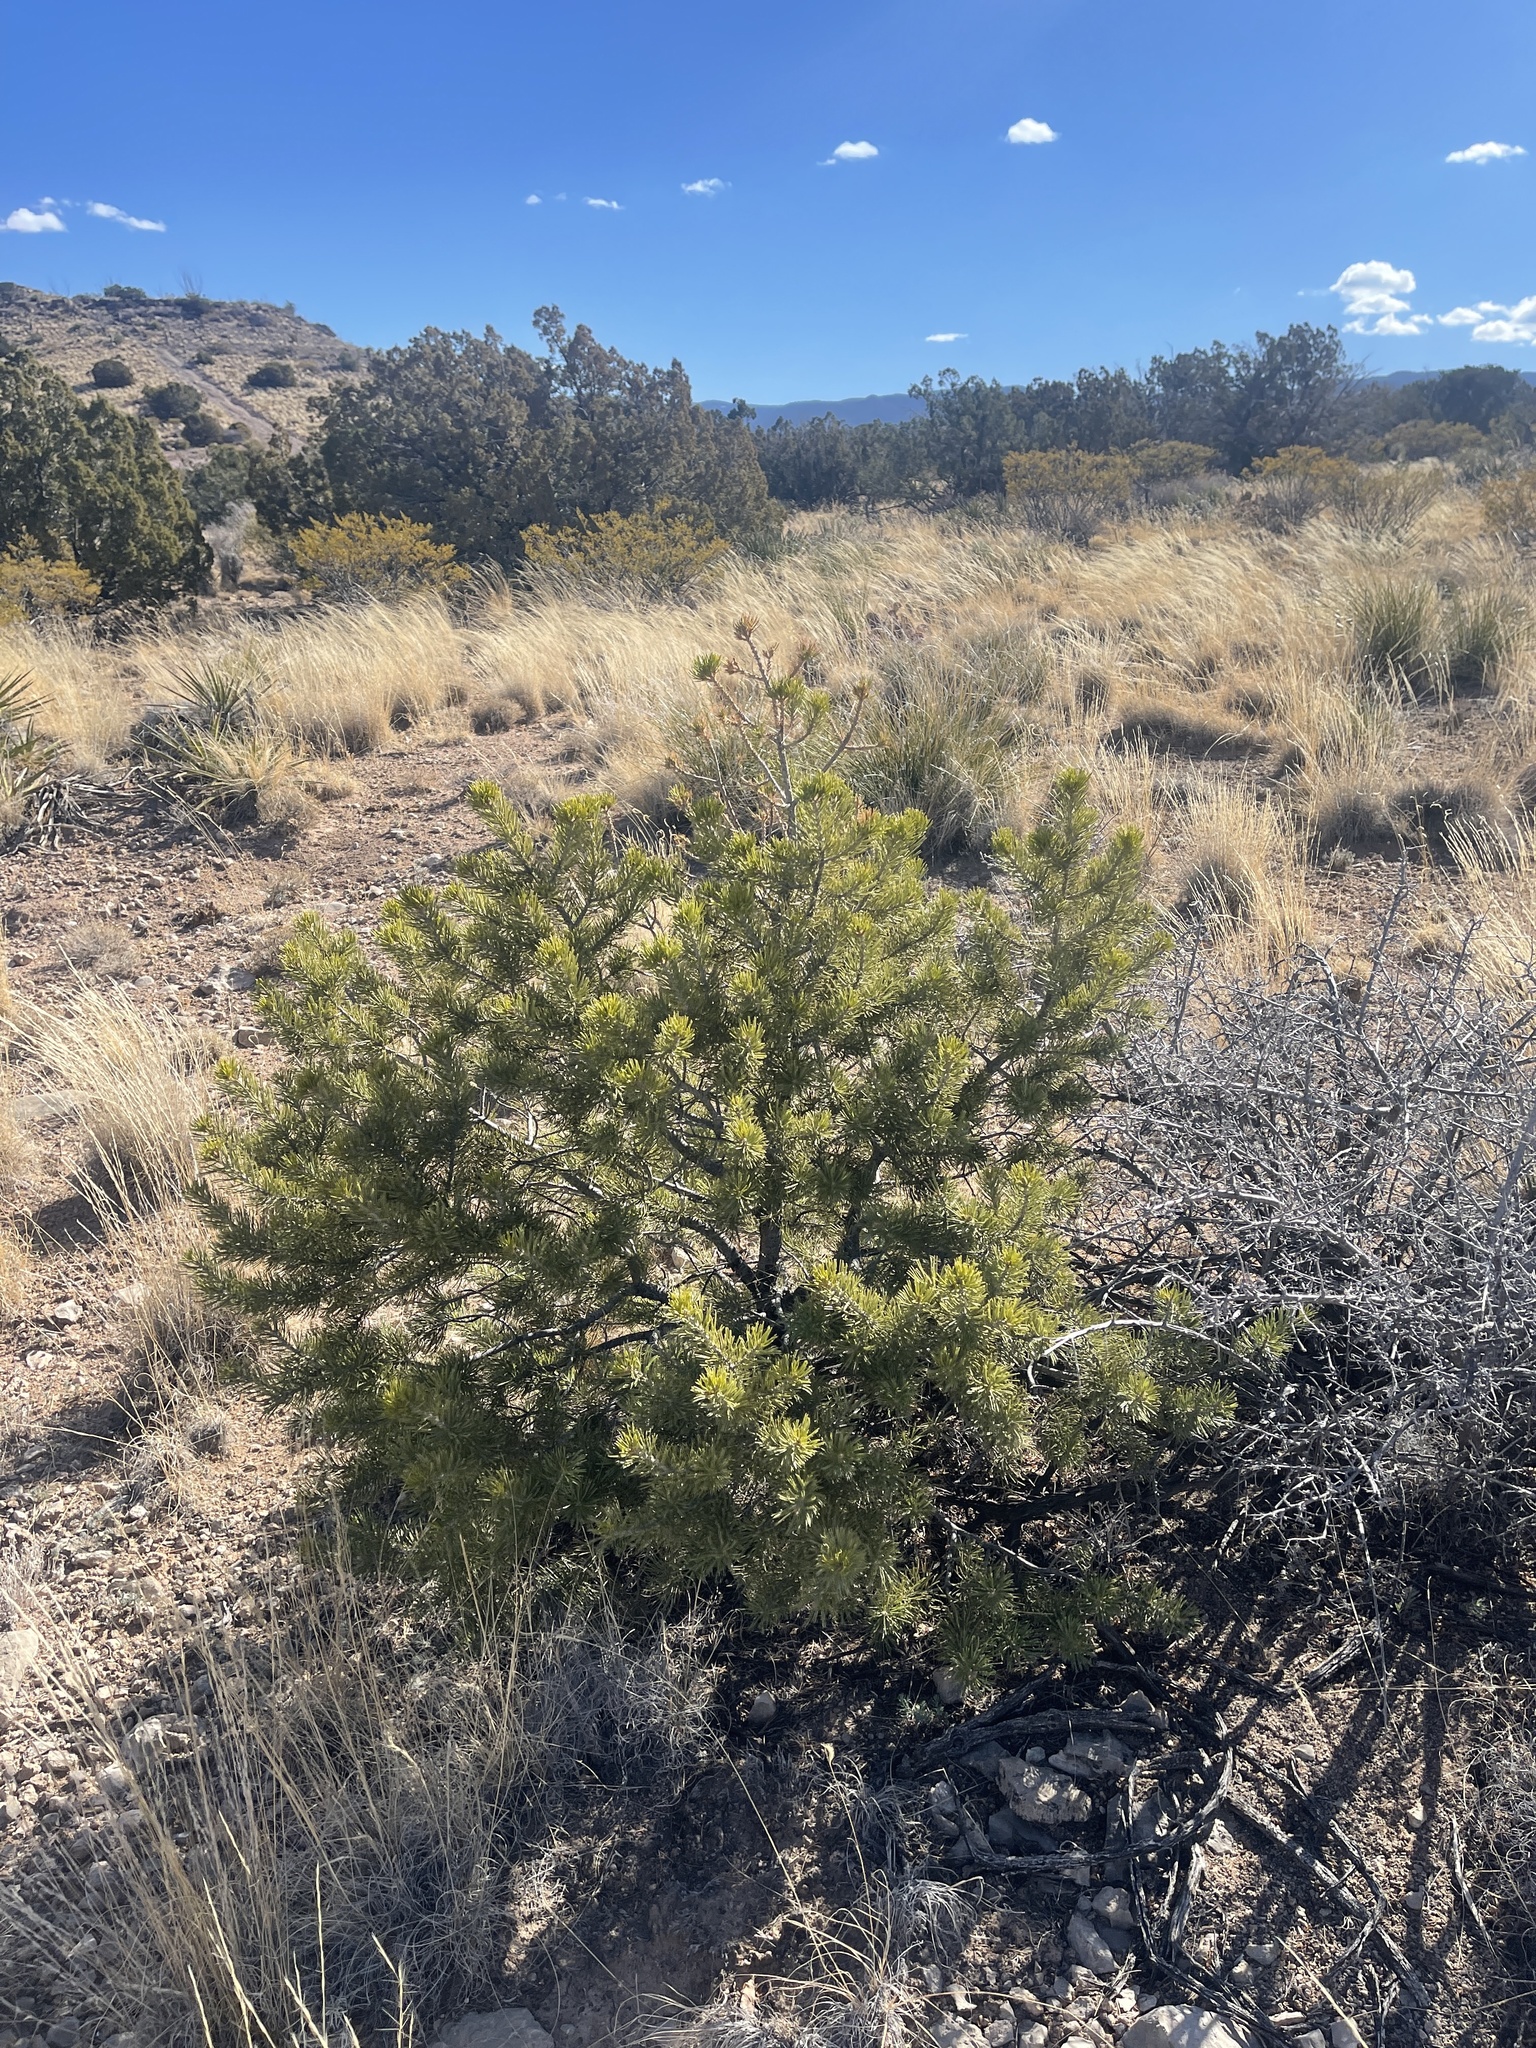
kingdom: Plantae
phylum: Tracheophyta
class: Pinopsida
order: Pinales
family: Pinaceae
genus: Pinus
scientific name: Pinus edulis
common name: Colorado pinyon
